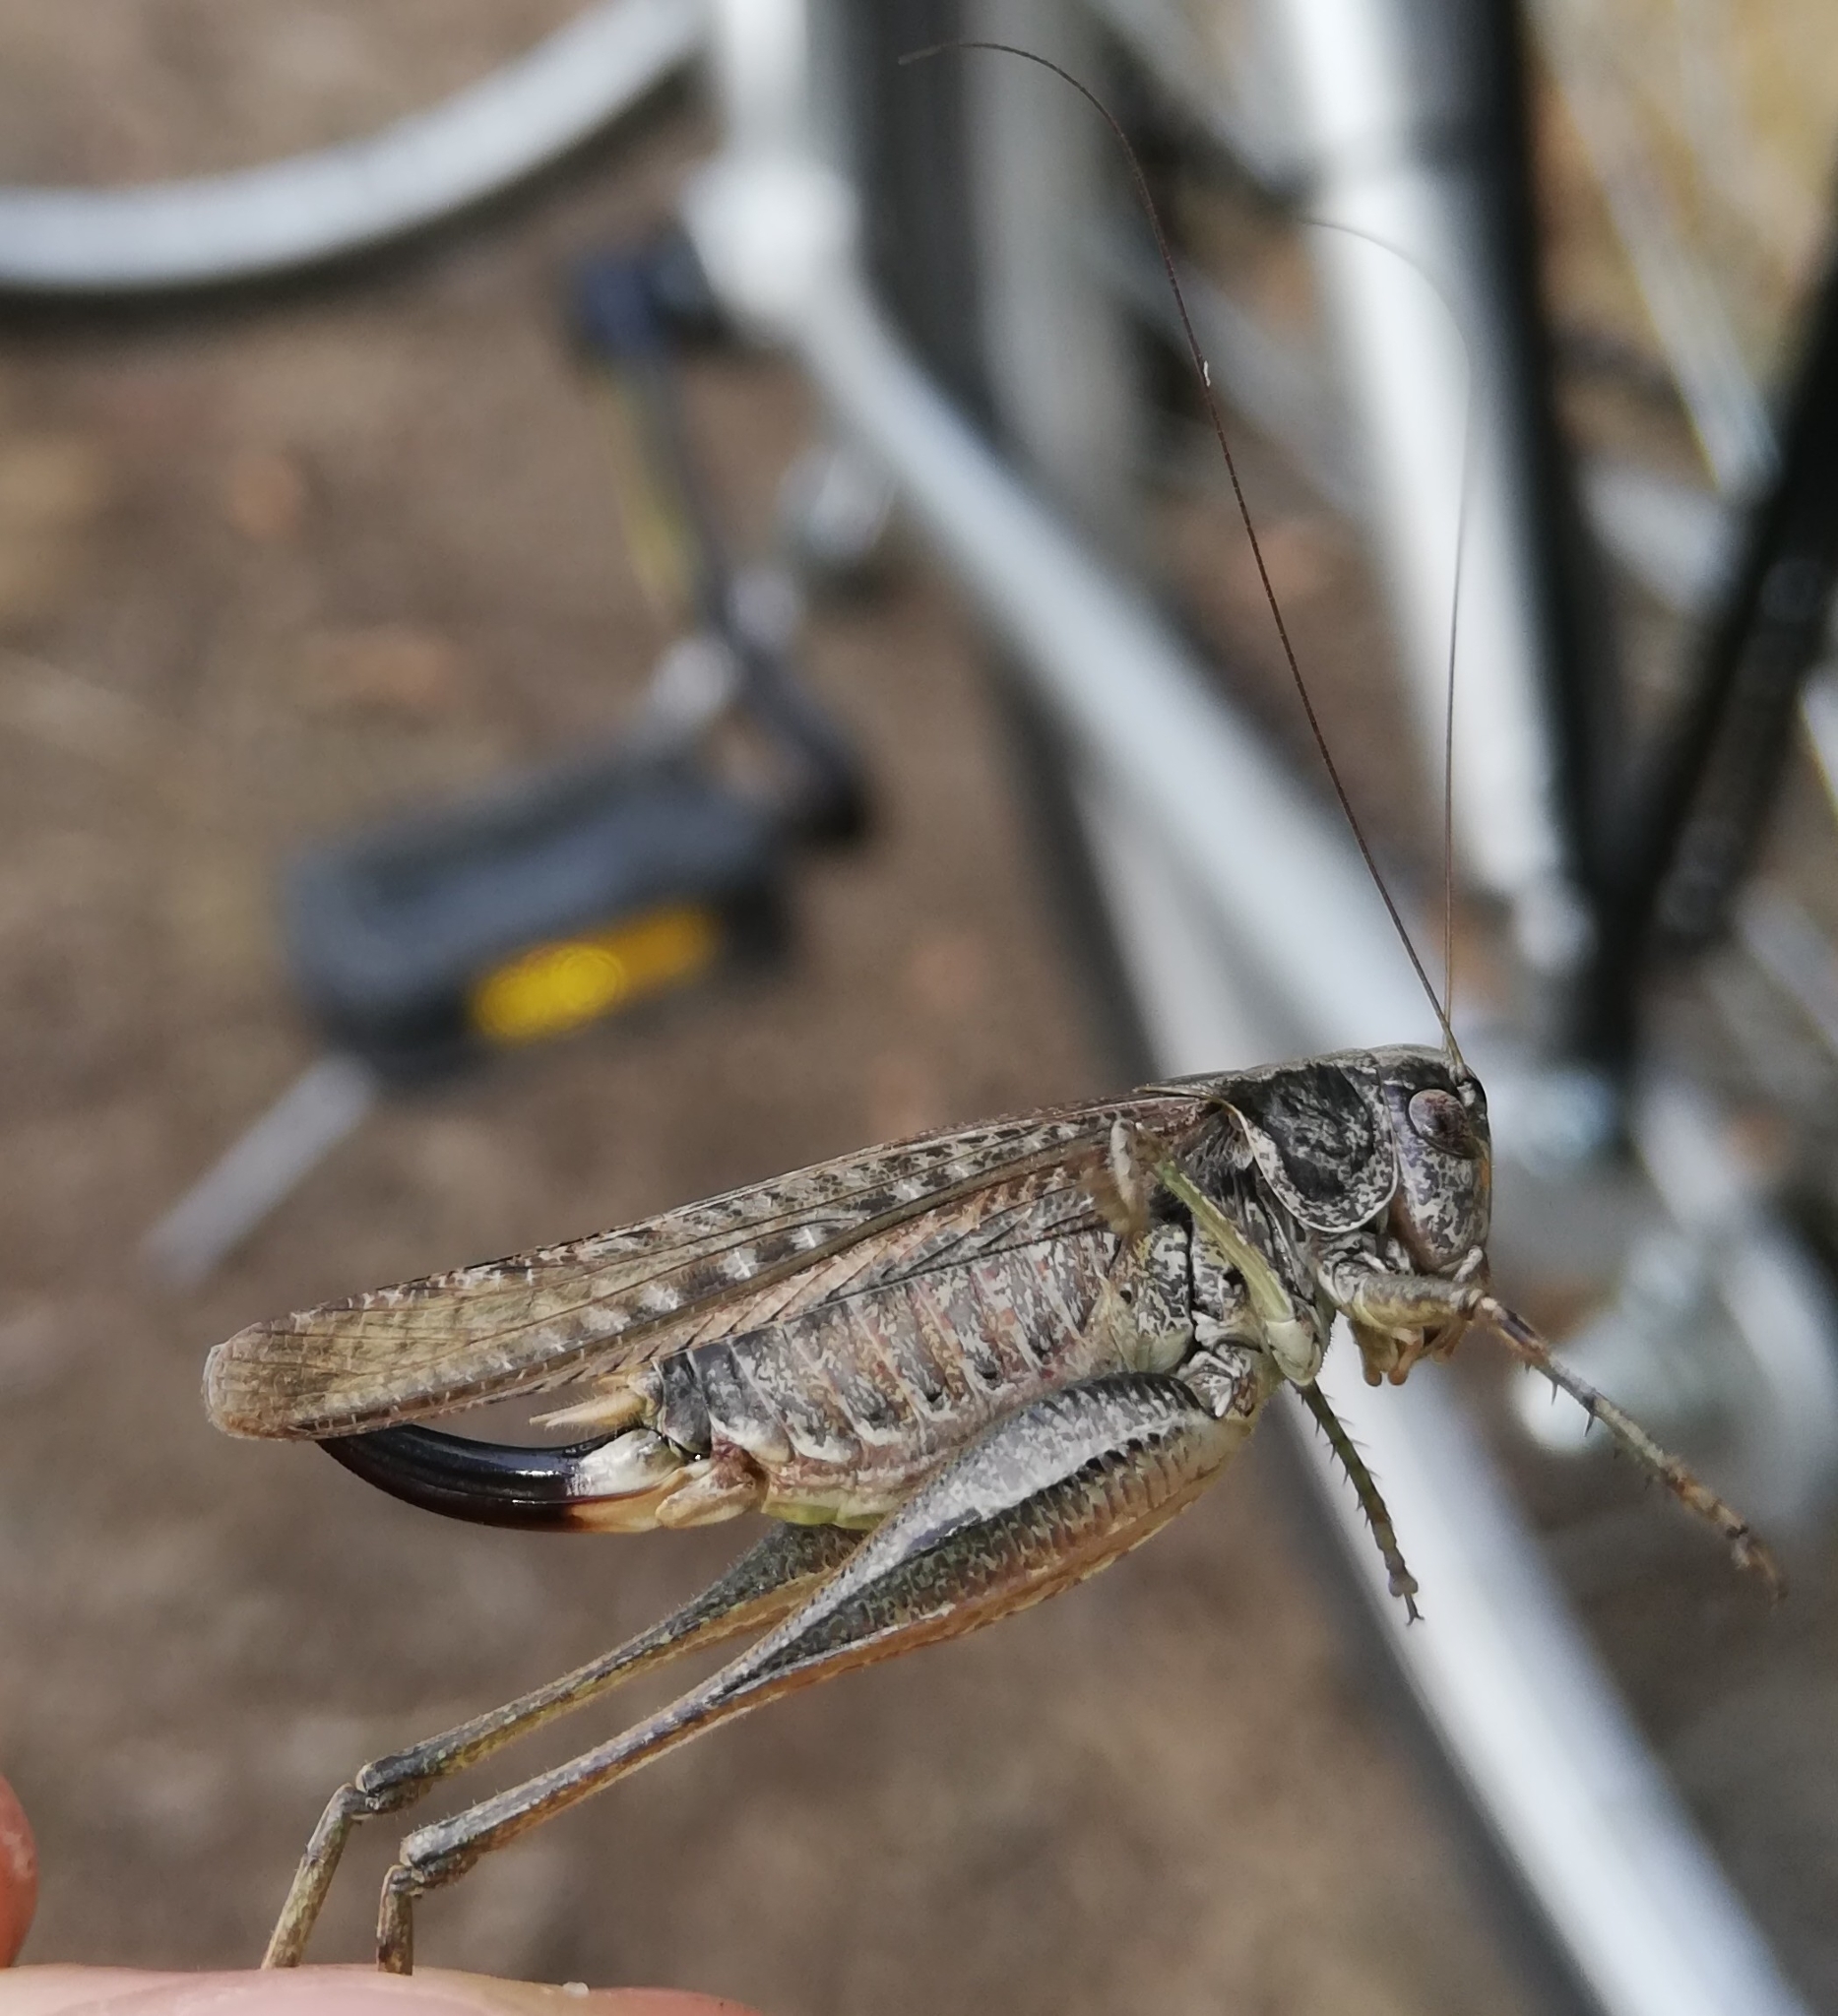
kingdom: Animalia
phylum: Arthropoda
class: Insecta
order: Orthoptera
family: Tettigoniidae
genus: Platycleis
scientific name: Platycleis albopunctata
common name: Grey bush-cricket
